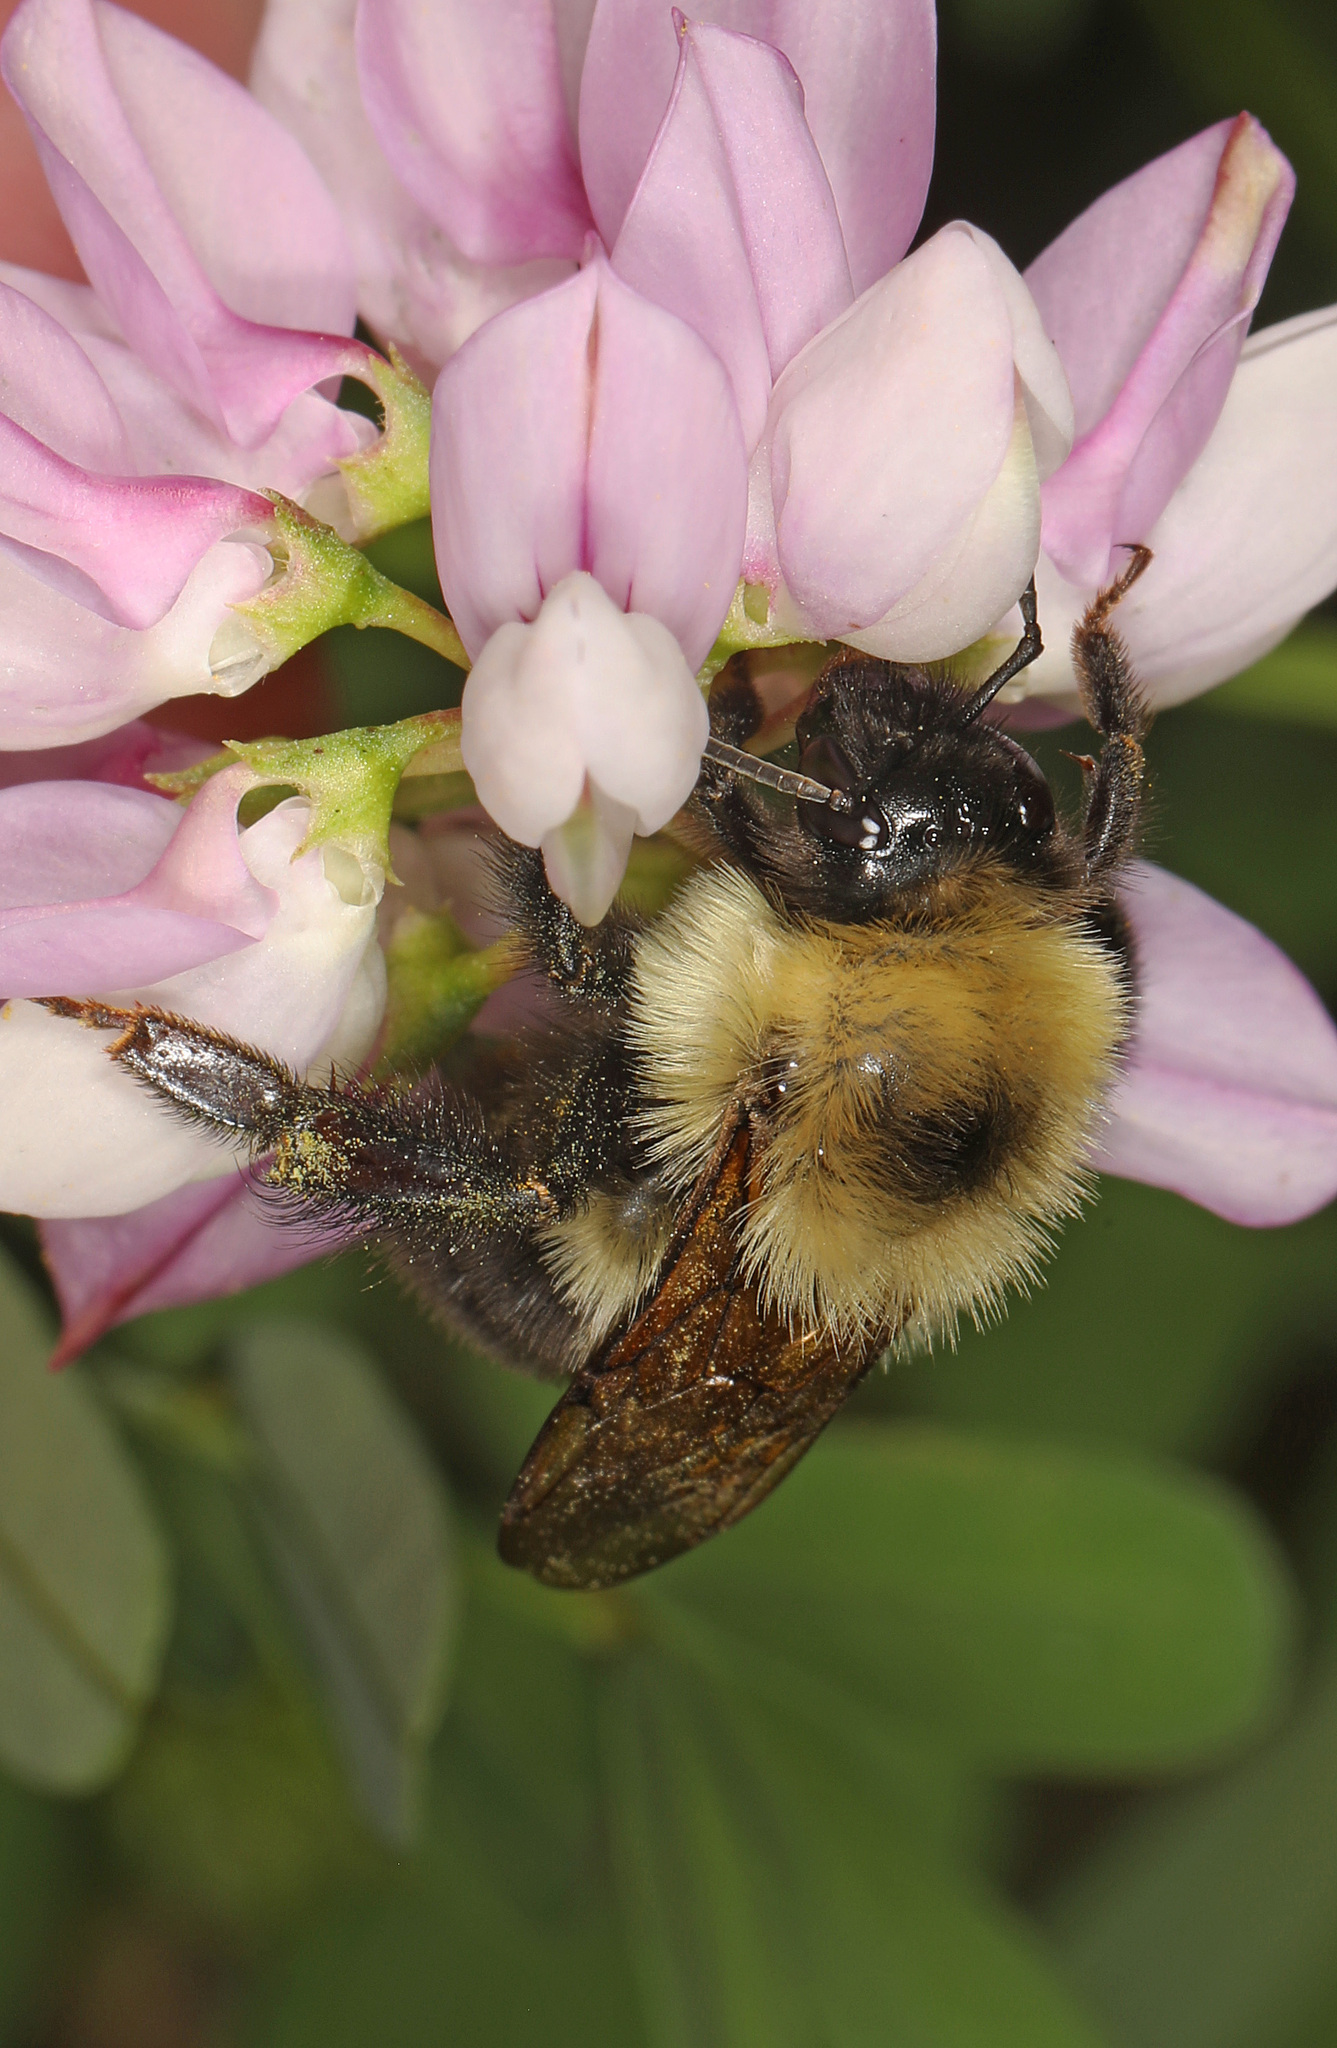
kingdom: Animalia
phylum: Arthropoda
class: Insecta
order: Hymenoptera
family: Apidae
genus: Bombus
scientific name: Bombus bimaculatus
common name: Two-spotted bumble bee
